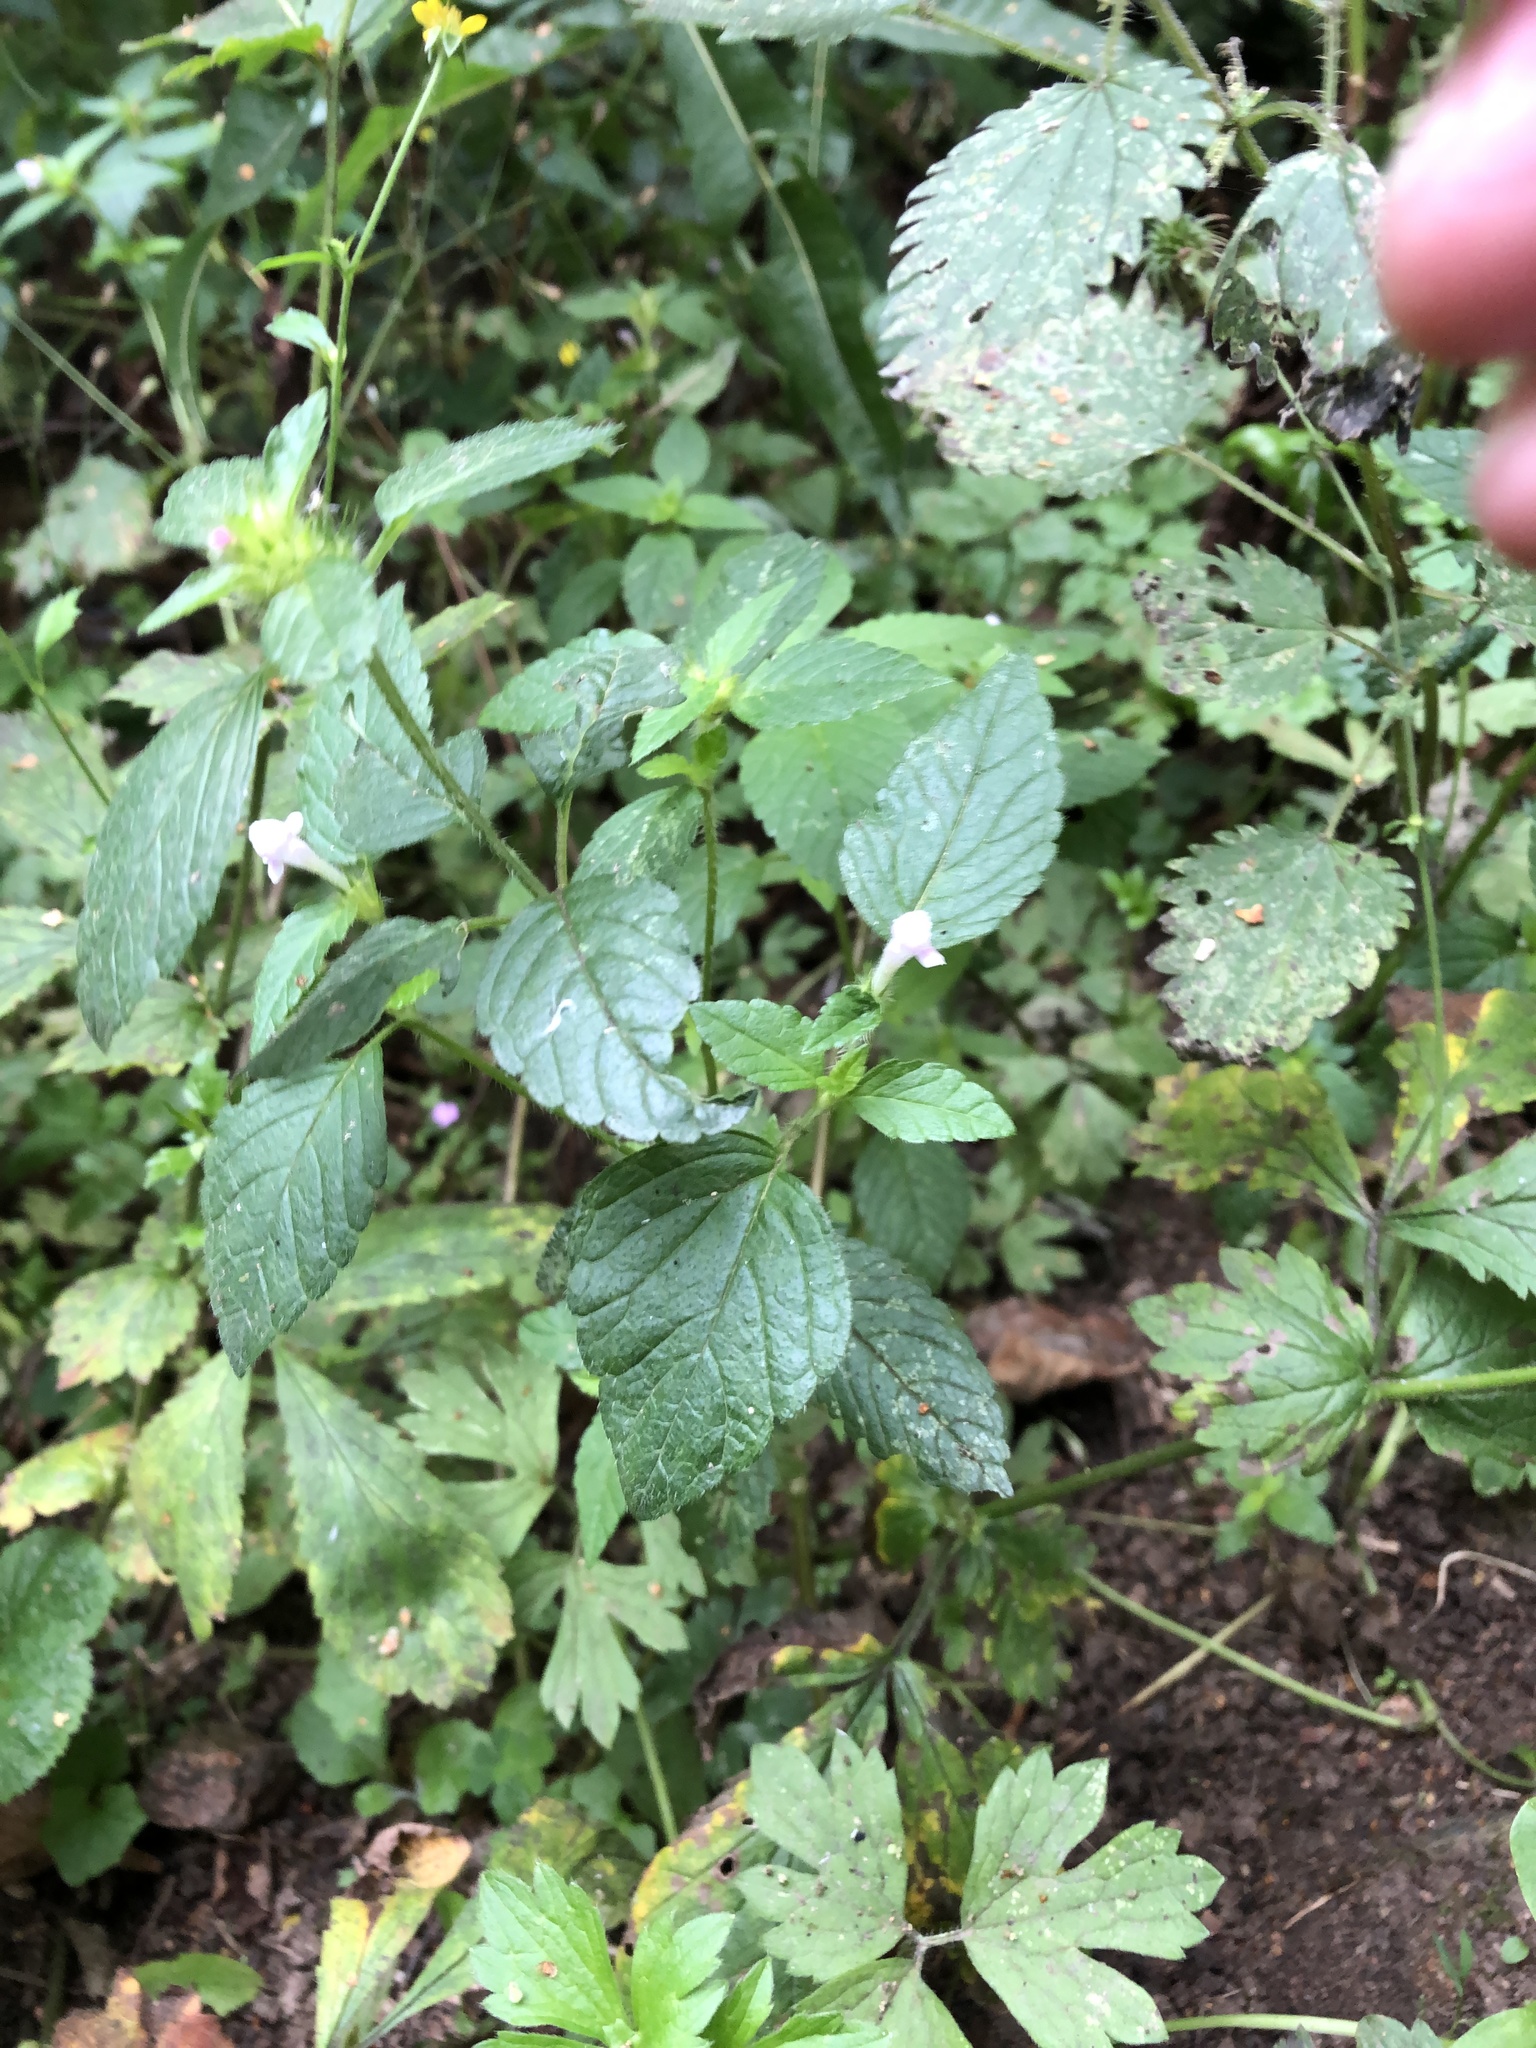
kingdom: Plantae
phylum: Tracheophyta
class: Magnoliopsida
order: Lamiales
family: Lamiaceae
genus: Galeopsis
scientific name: Galeopsis tetrahit
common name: Common hemp-nettle
